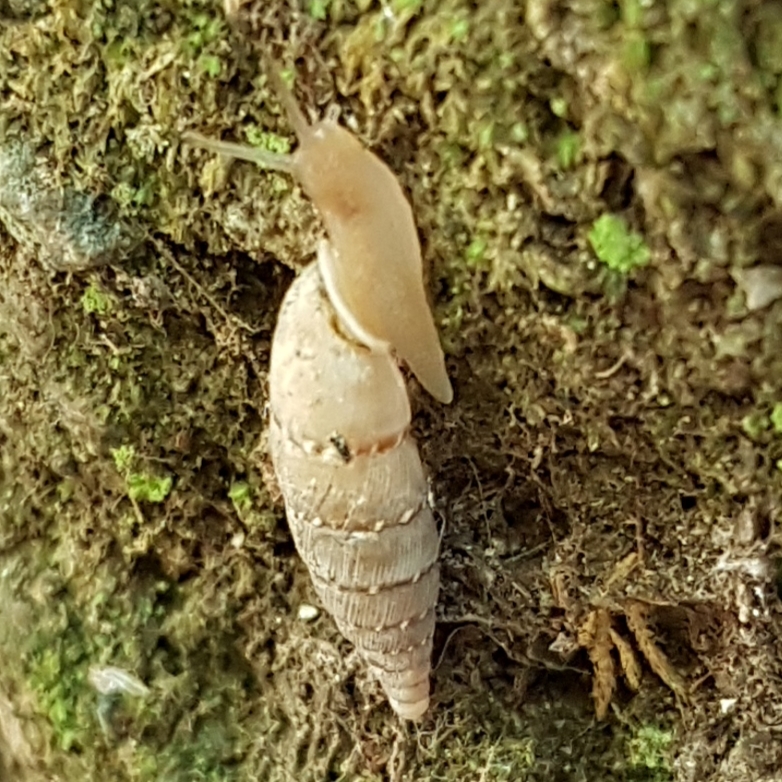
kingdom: Animalia
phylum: Mollusca
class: Gastropoda
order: Stylommatophora
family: Clausiliidae
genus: Papillifera
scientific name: Papillifera papillaris
